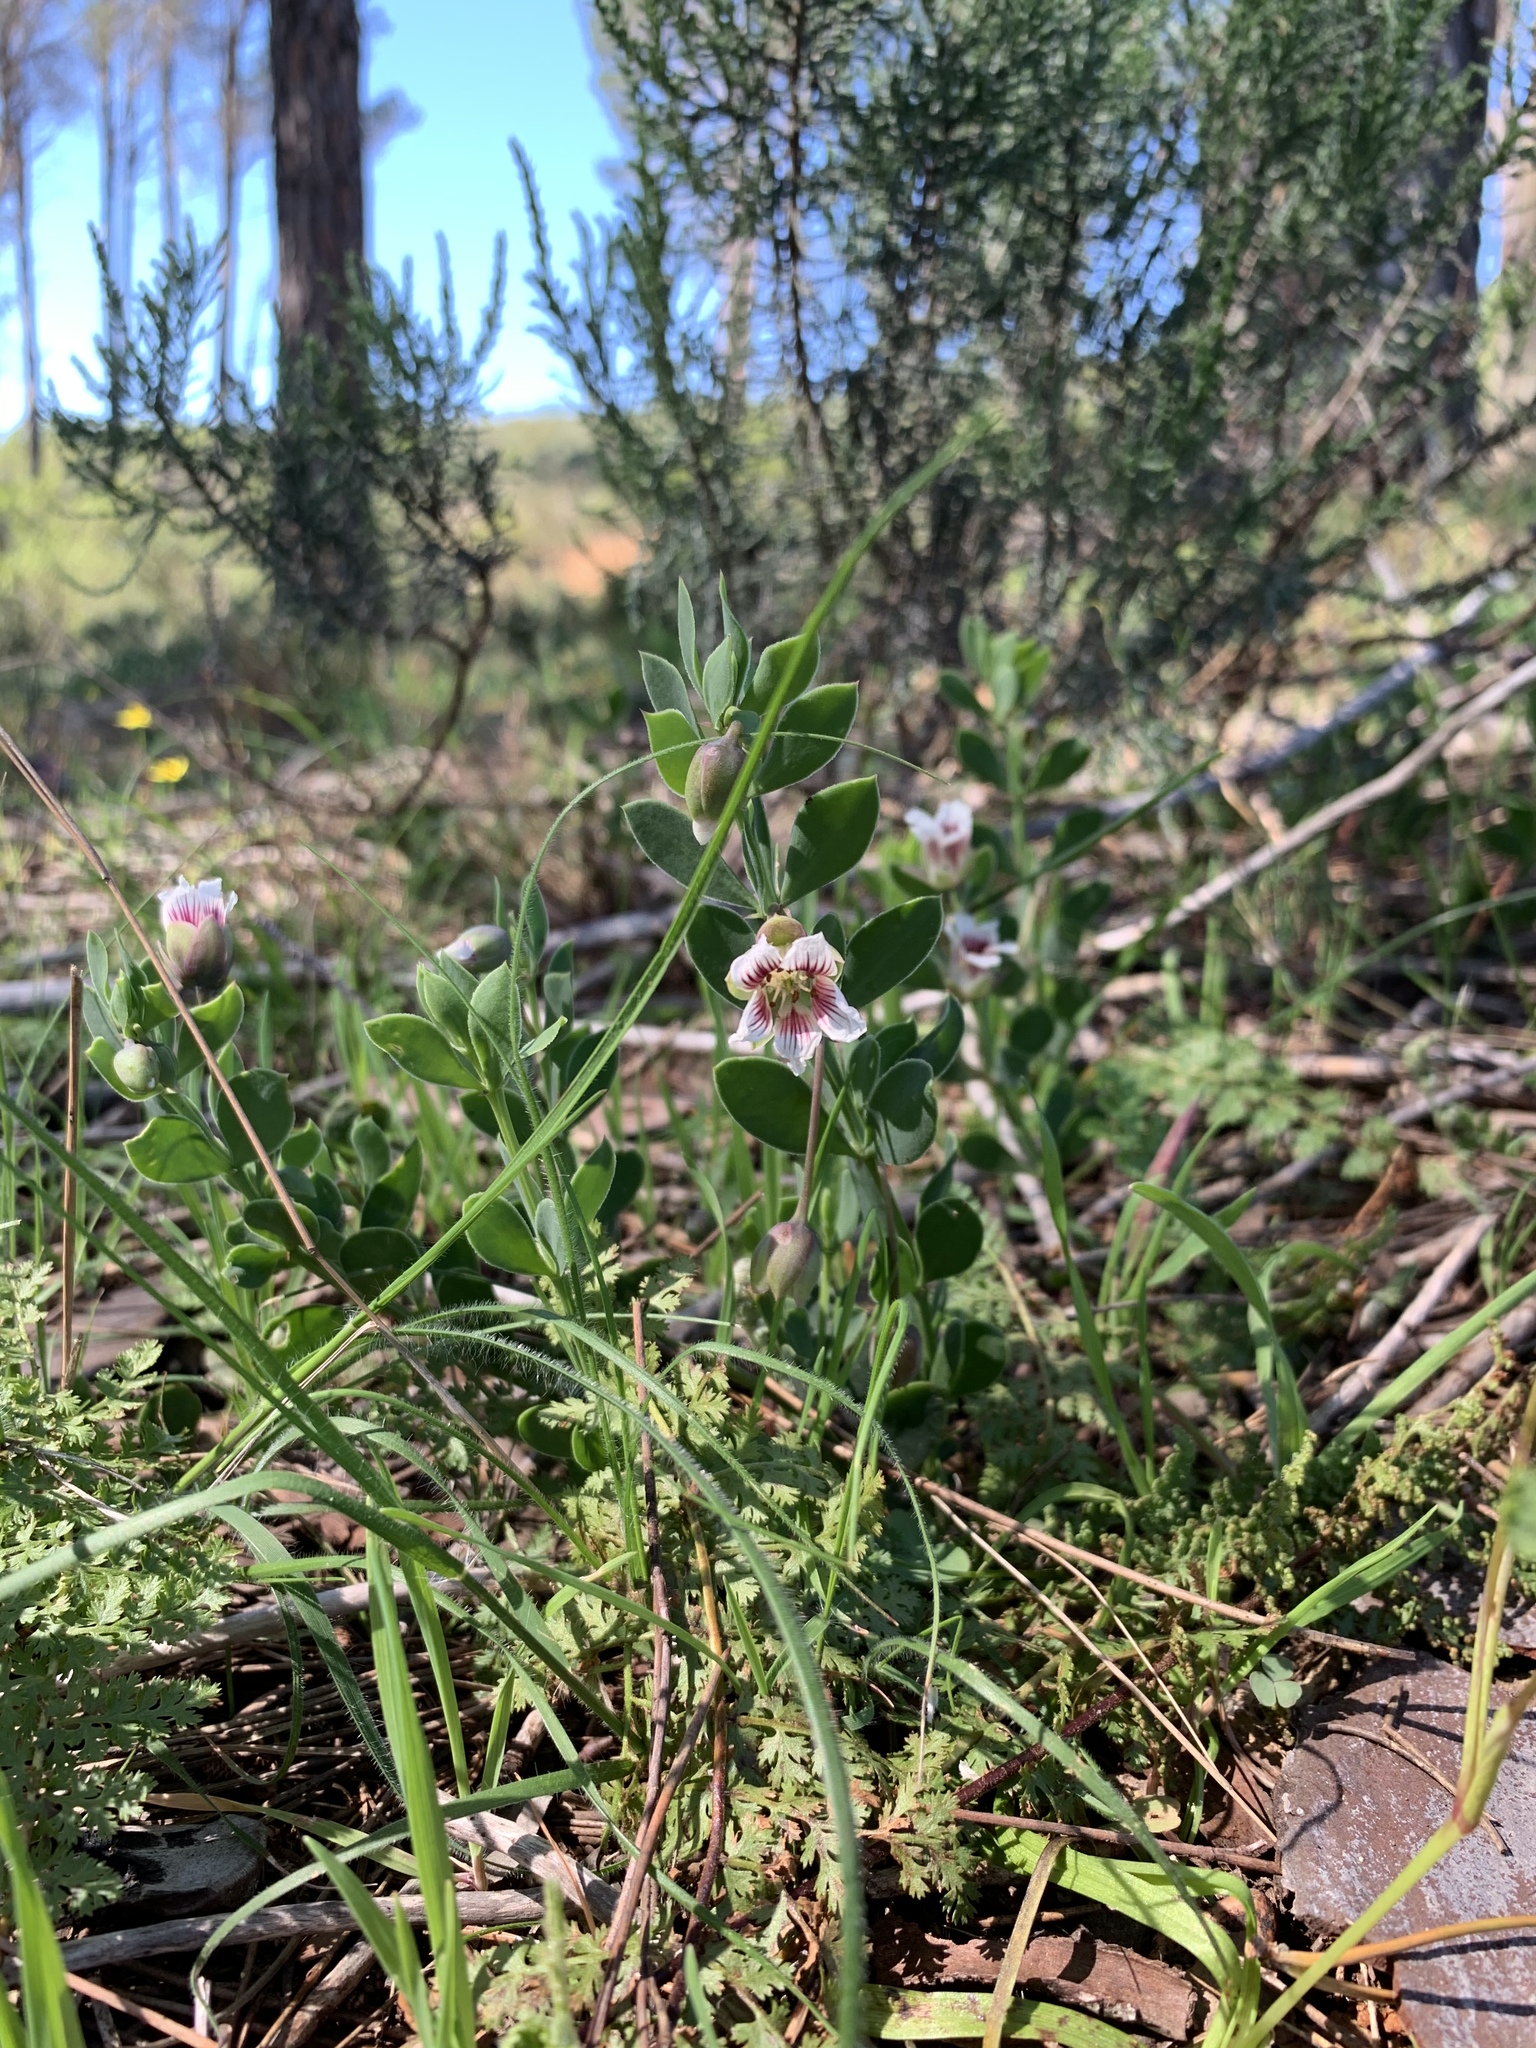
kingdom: Plantae
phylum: Tracheophyta
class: Magnoliopsida
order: Zygophyllales
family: Zygophyllaceae
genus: Roepera
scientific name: Roepera sessilifolia
